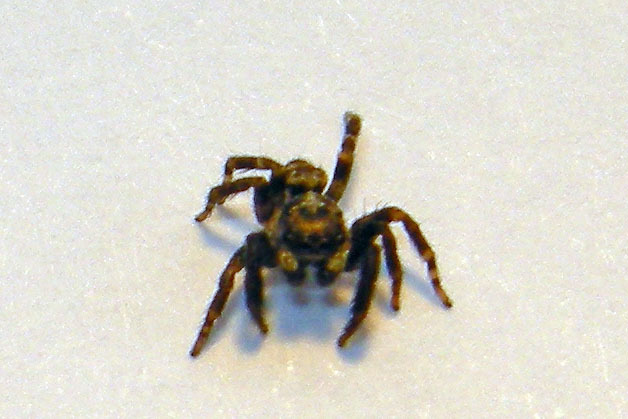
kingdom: Animalia
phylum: Arthropoda
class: Arachnida
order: Araneae
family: Salticidae
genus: Pseudeuophrys
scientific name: Pseudeuophrys erratica
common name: Jumping spider
